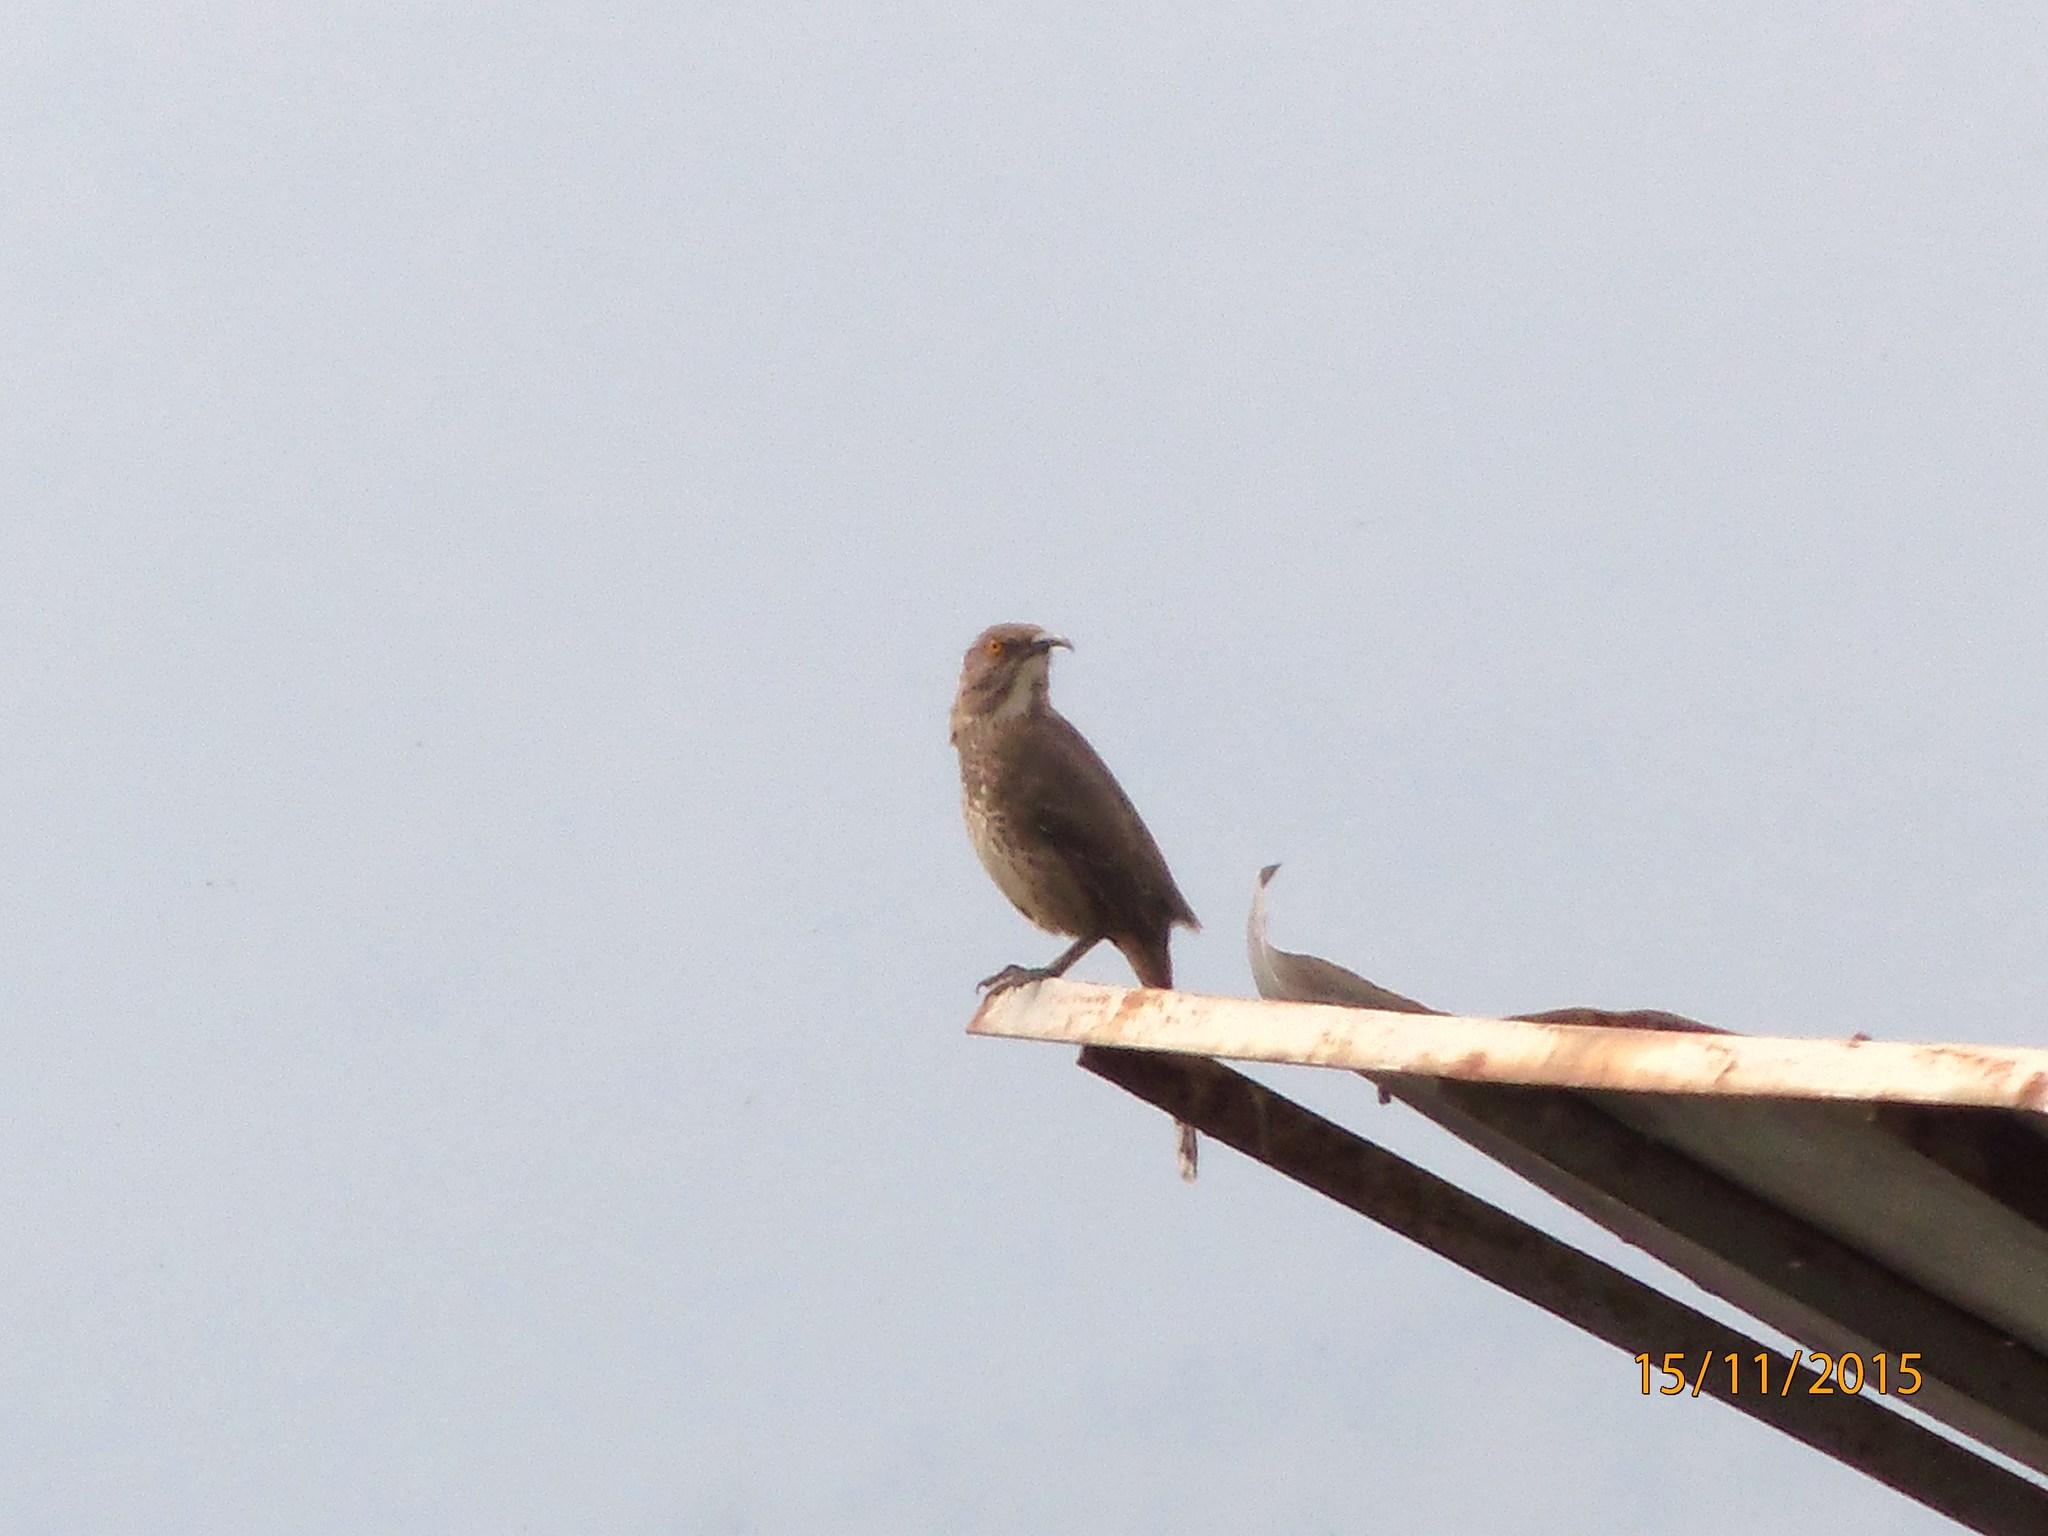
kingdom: Animalia
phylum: Chordata
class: Aves
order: Passeriformes
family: Mimidae
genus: Toxostoma
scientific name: Toxostoma curvirostre
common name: Curve-billed thrasher
